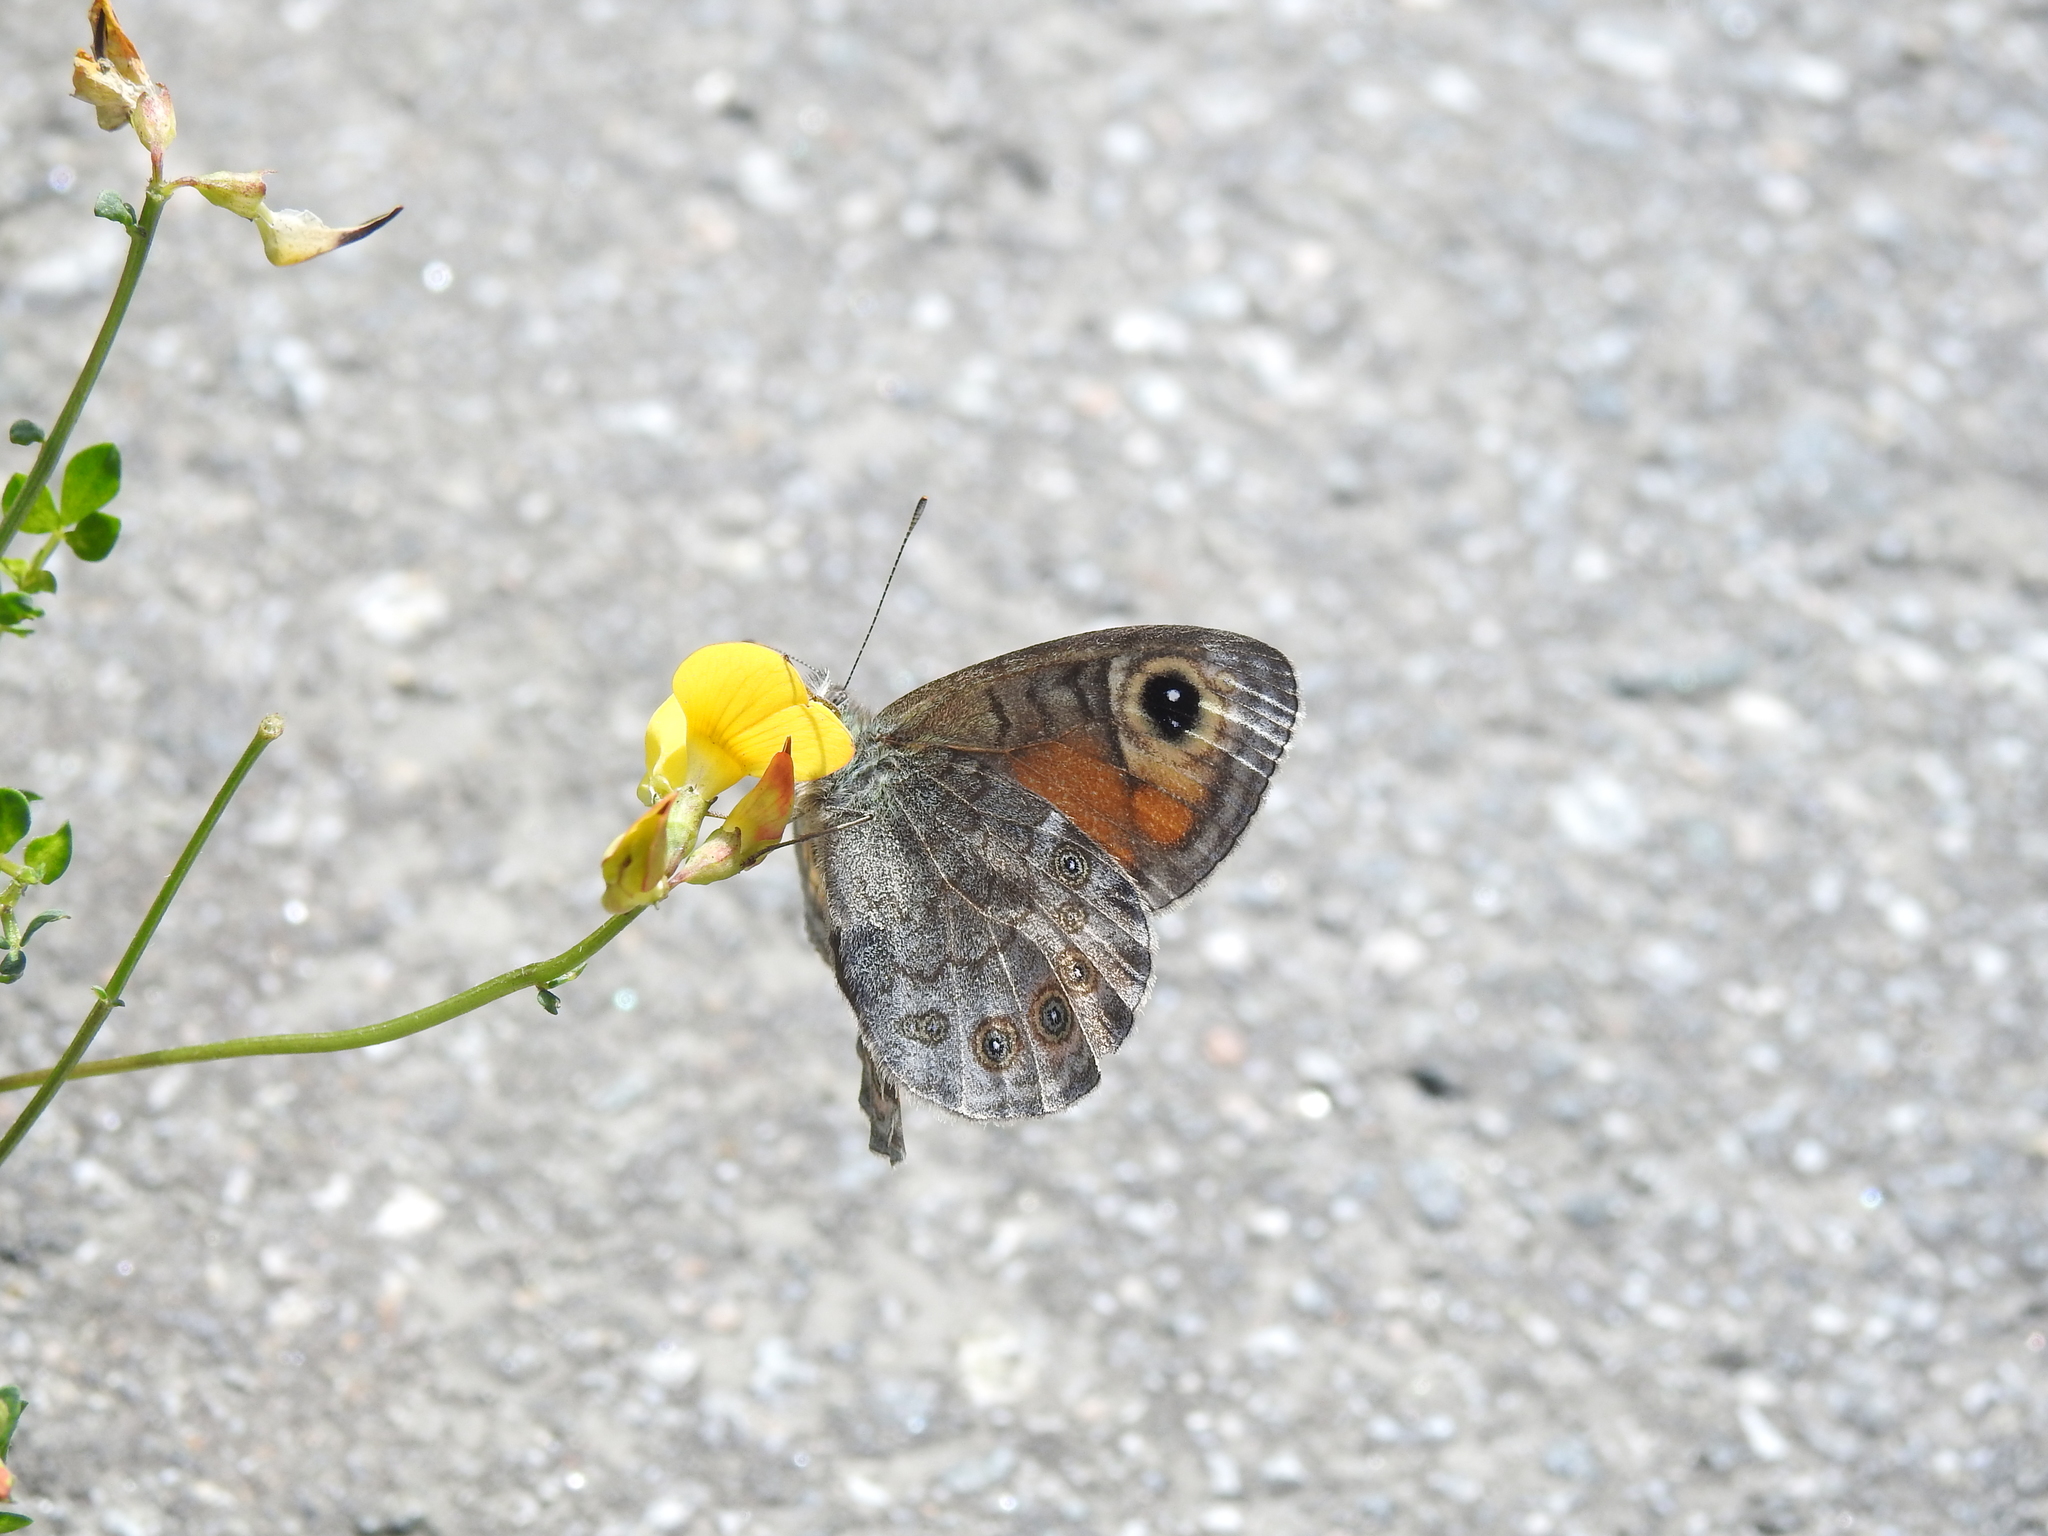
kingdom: Animalia
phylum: Arthropoda
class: Insecta
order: Lepidoptera
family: Nymphalidae
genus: Pararge
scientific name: Pararge Lasiommata maera
